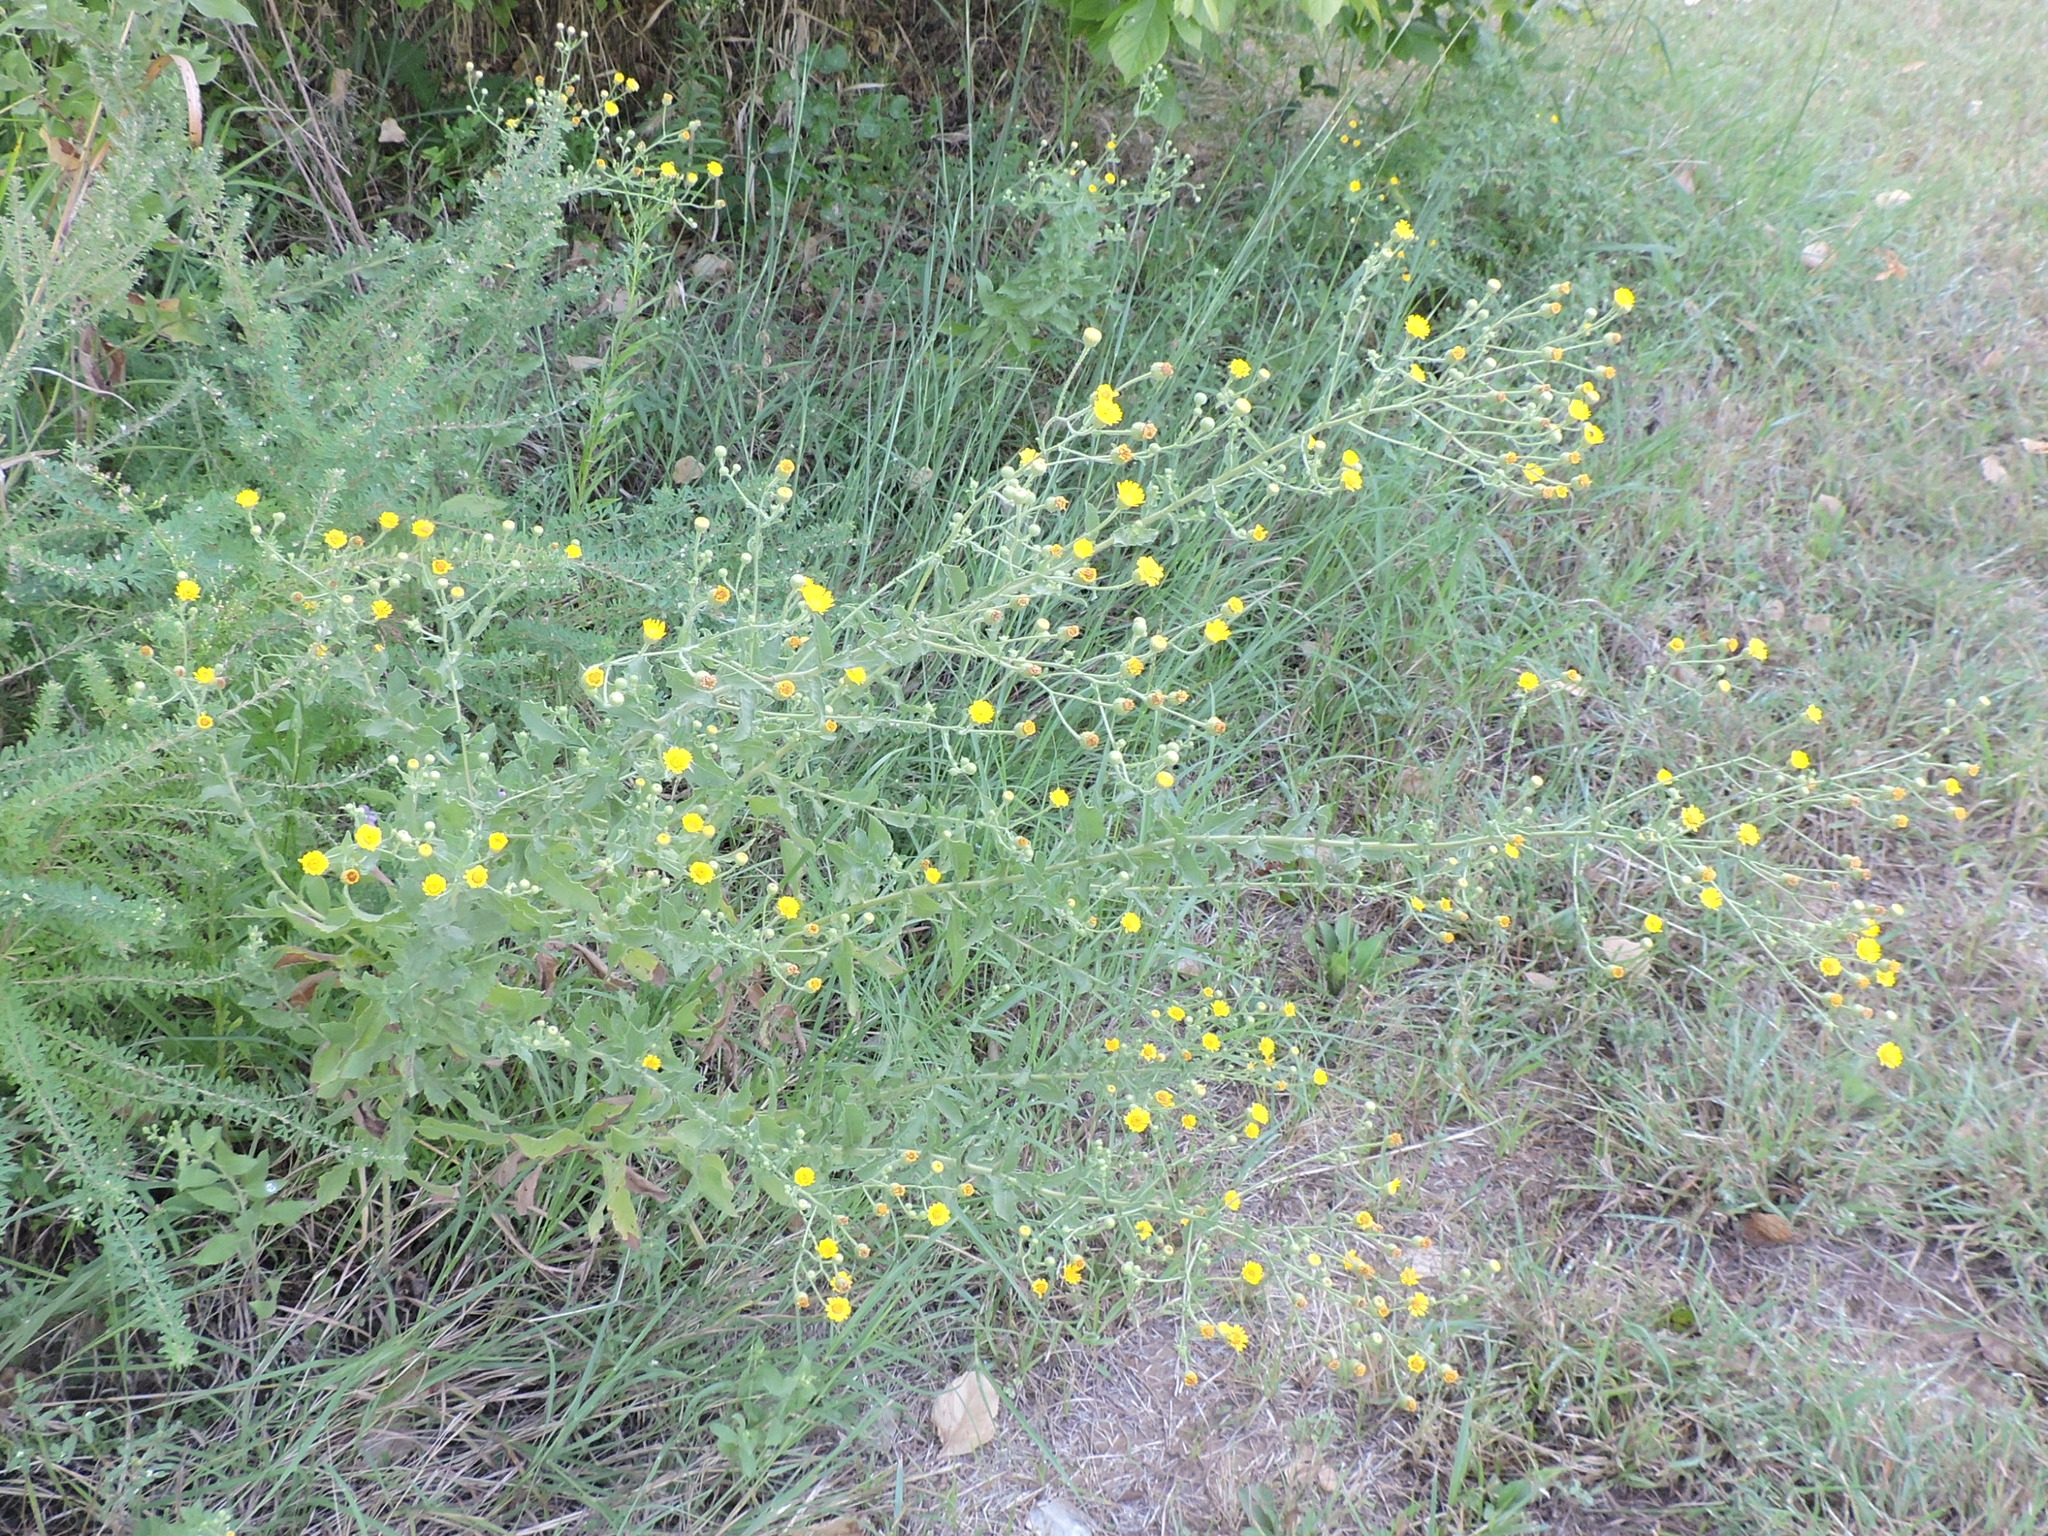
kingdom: Plantae
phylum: Tracheophyta
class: Magnoliopsida
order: Asterales
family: Asteraceae
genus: Heterotheca
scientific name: Heterotheca subaxillaris
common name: Camphorweed
